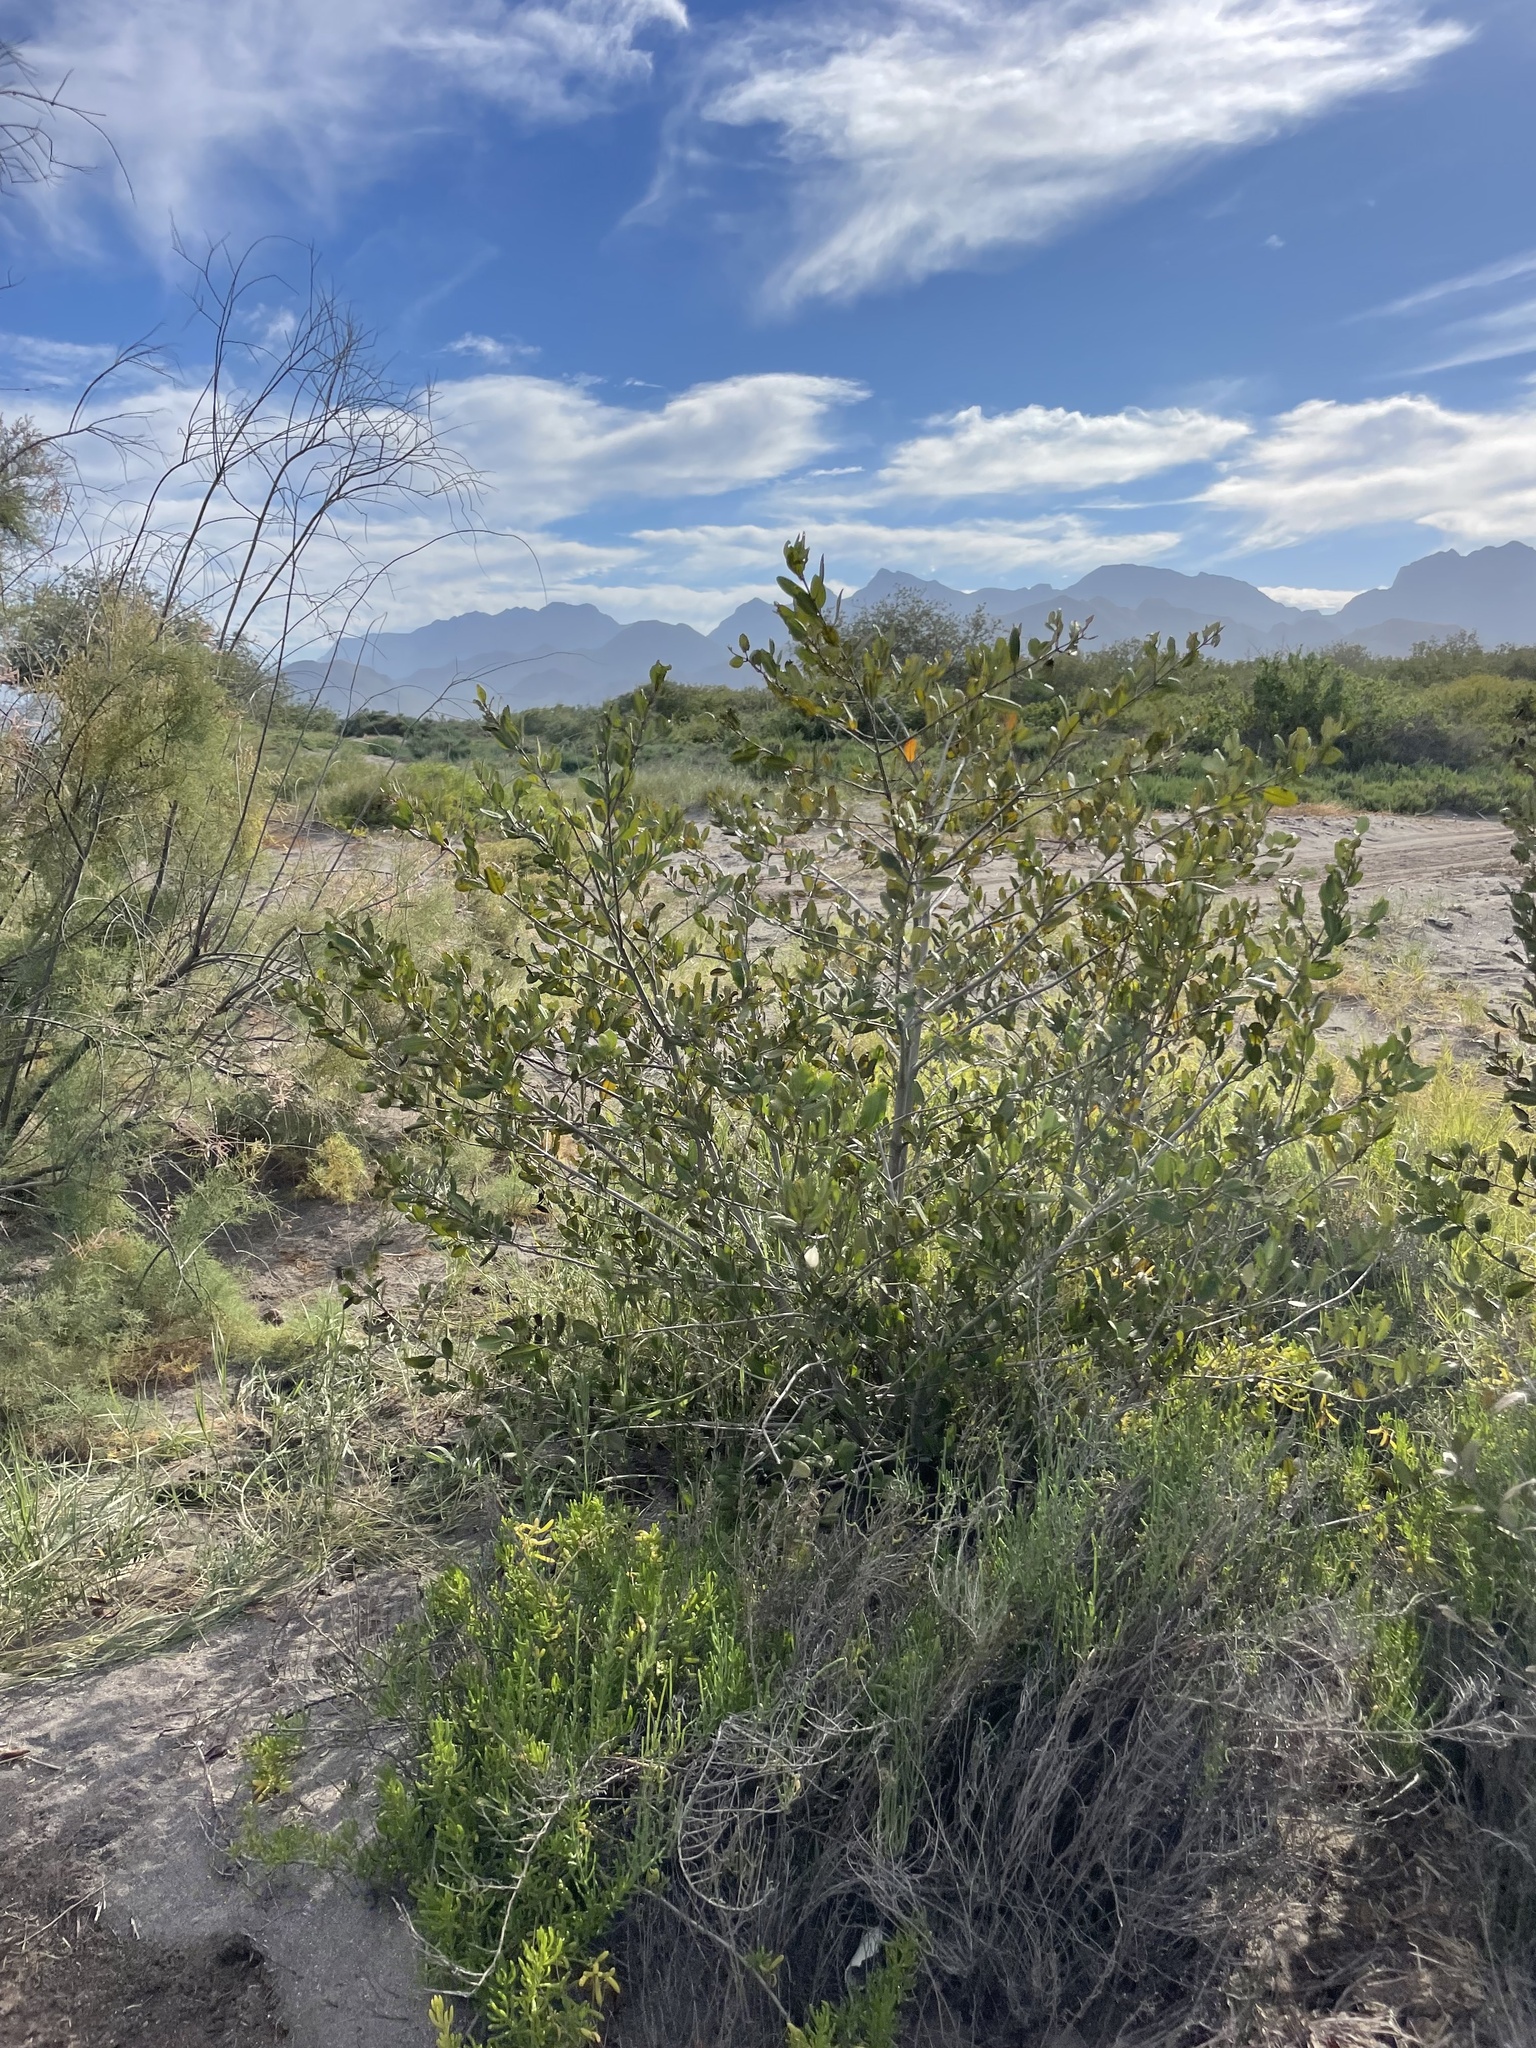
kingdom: Plantae
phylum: Tracheophyta
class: Magnoliopsida
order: Lamiales
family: Acanthaceae
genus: Avicennia
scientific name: Avicennia germinans
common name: Black mangrove
